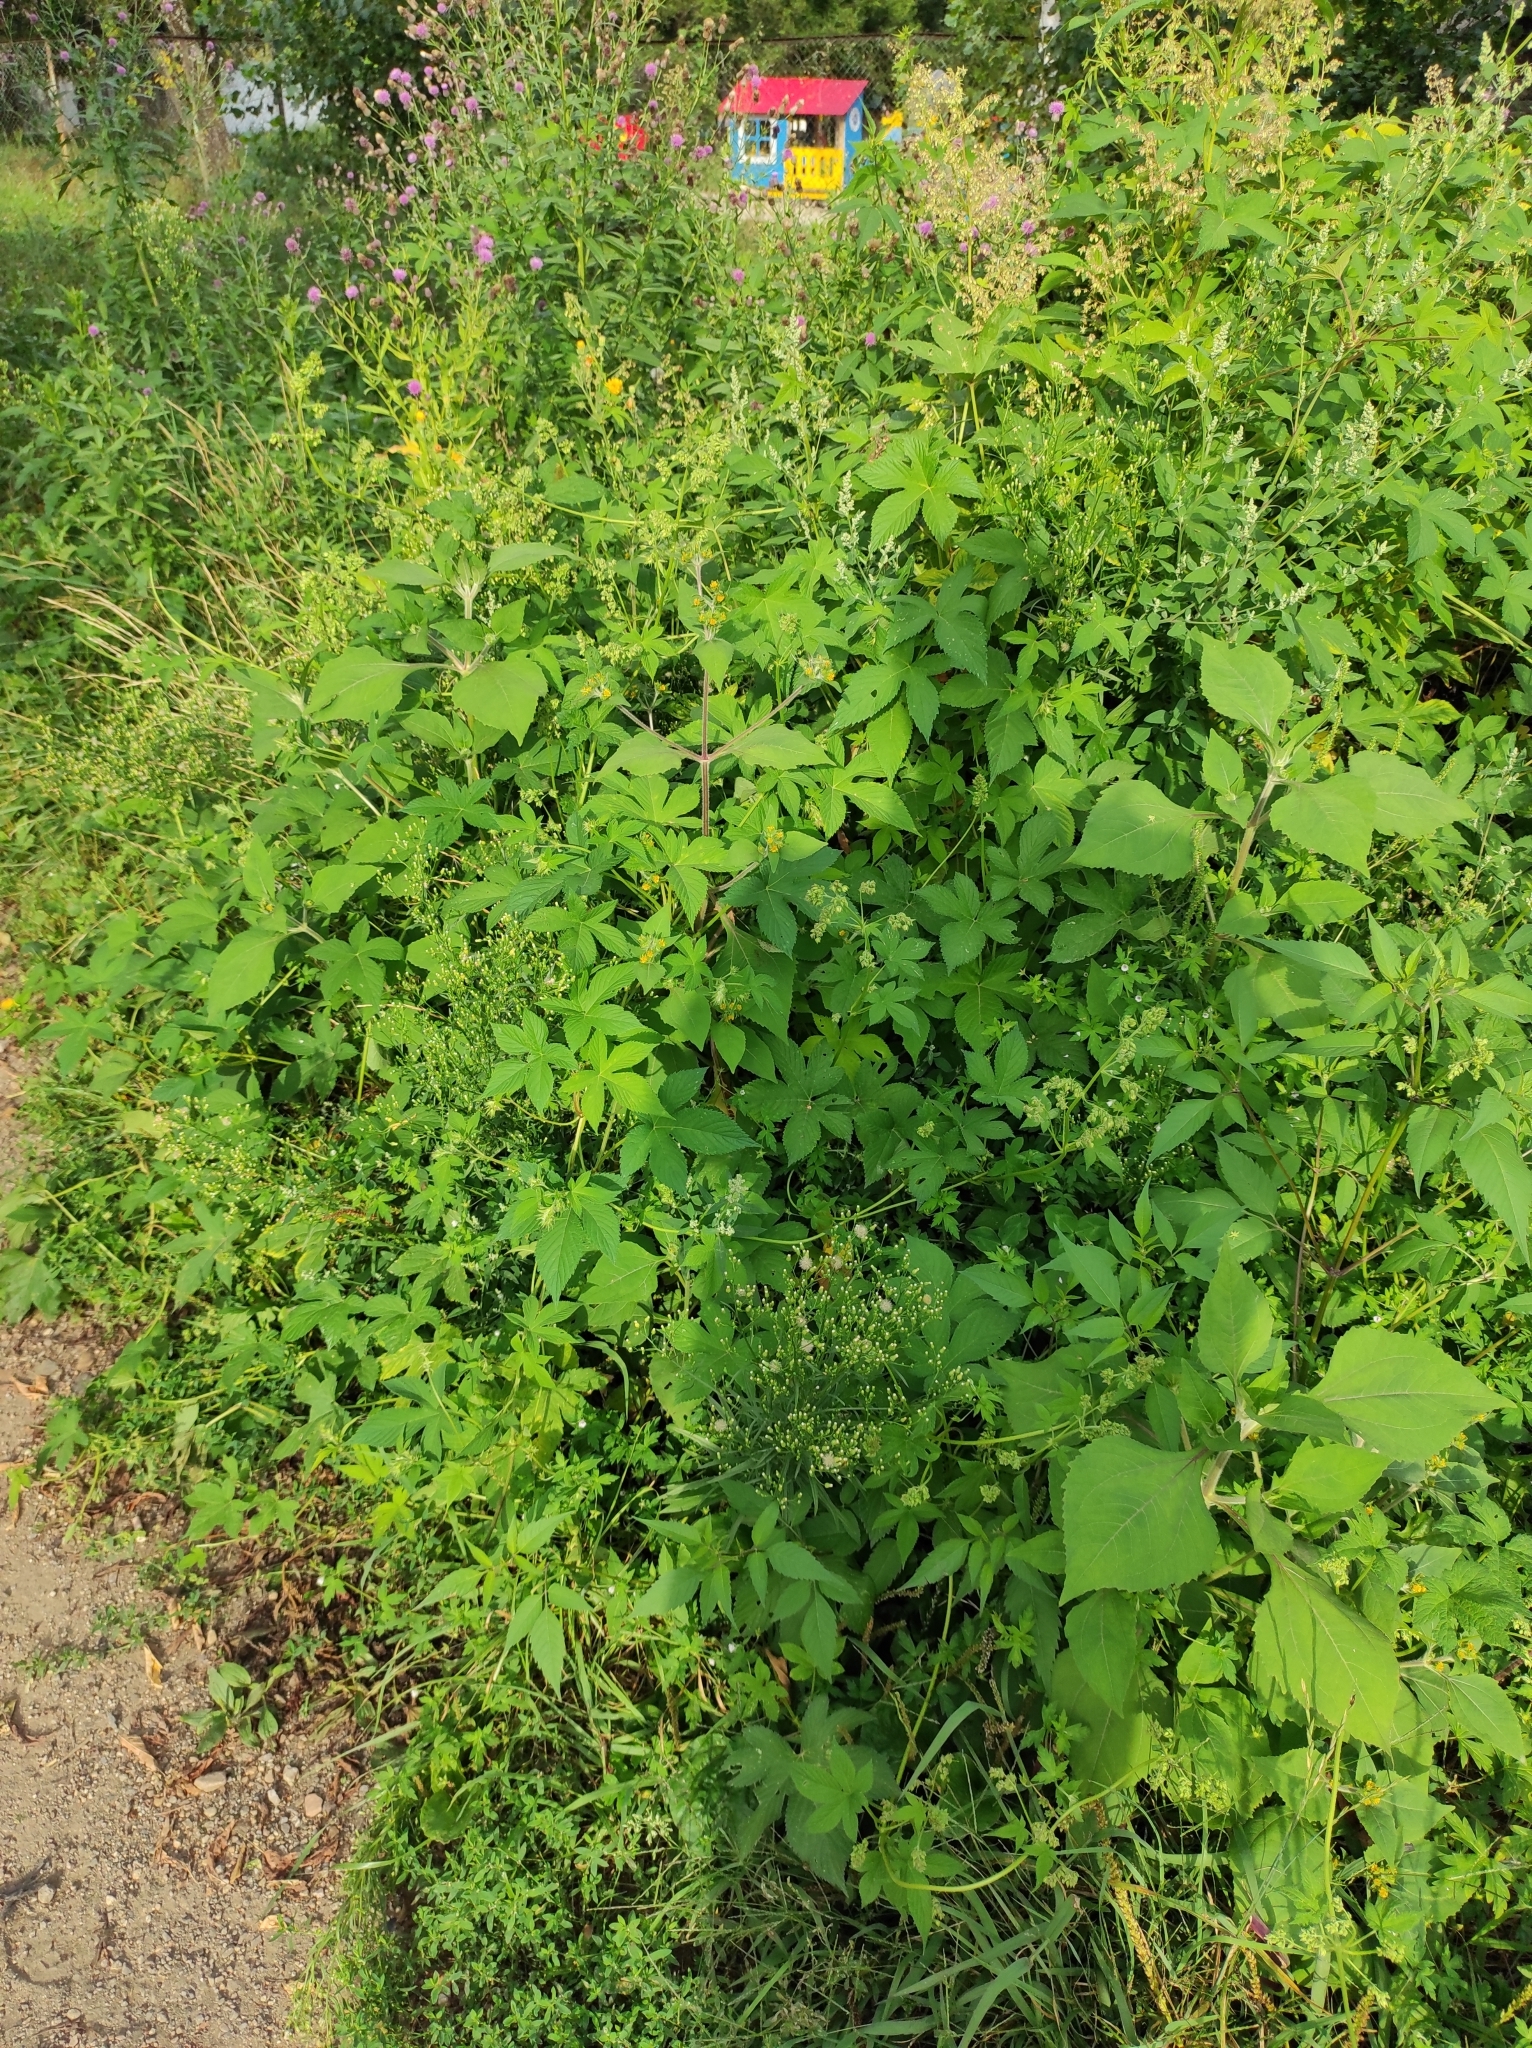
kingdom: Plantae
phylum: Tracheophyta
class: Magnoliopsida
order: Asterales
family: Asteraceae
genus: Sigesbeckia
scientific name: Sigesbeckia orientalis
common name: Eastern st paul's-wort
